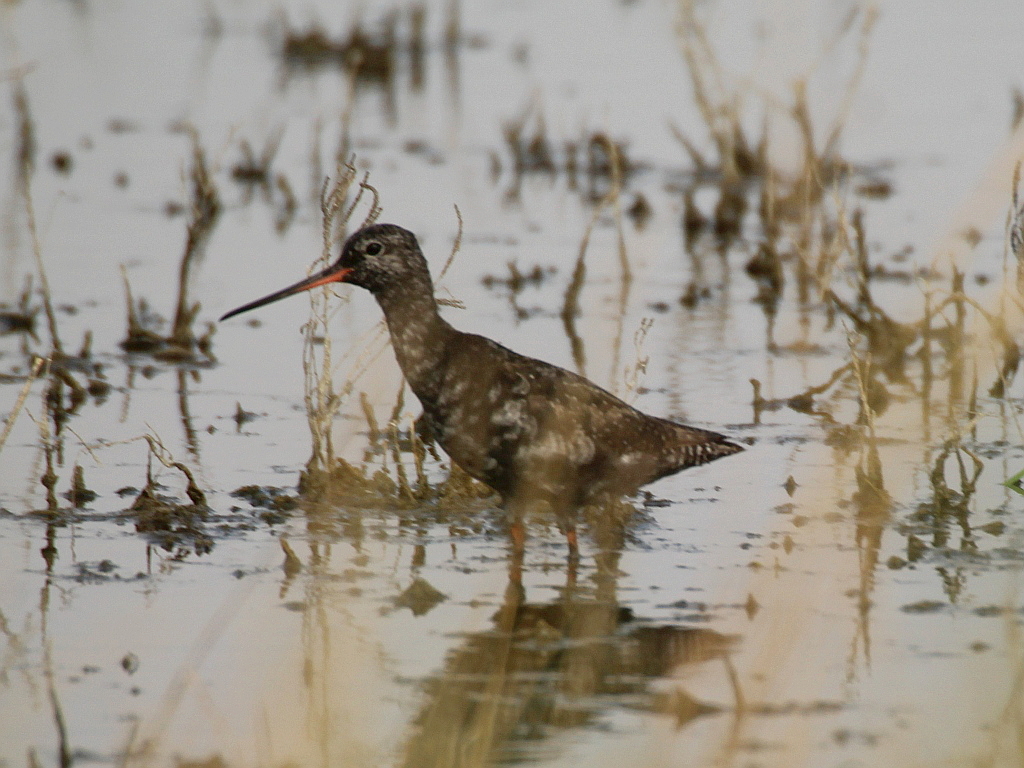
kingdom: Animalia
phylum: Chordata
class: Aves
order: Charadriiformes
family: Scolopacidae
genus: Tringa
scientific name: Tringa erythropus
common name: Spotted redshank
